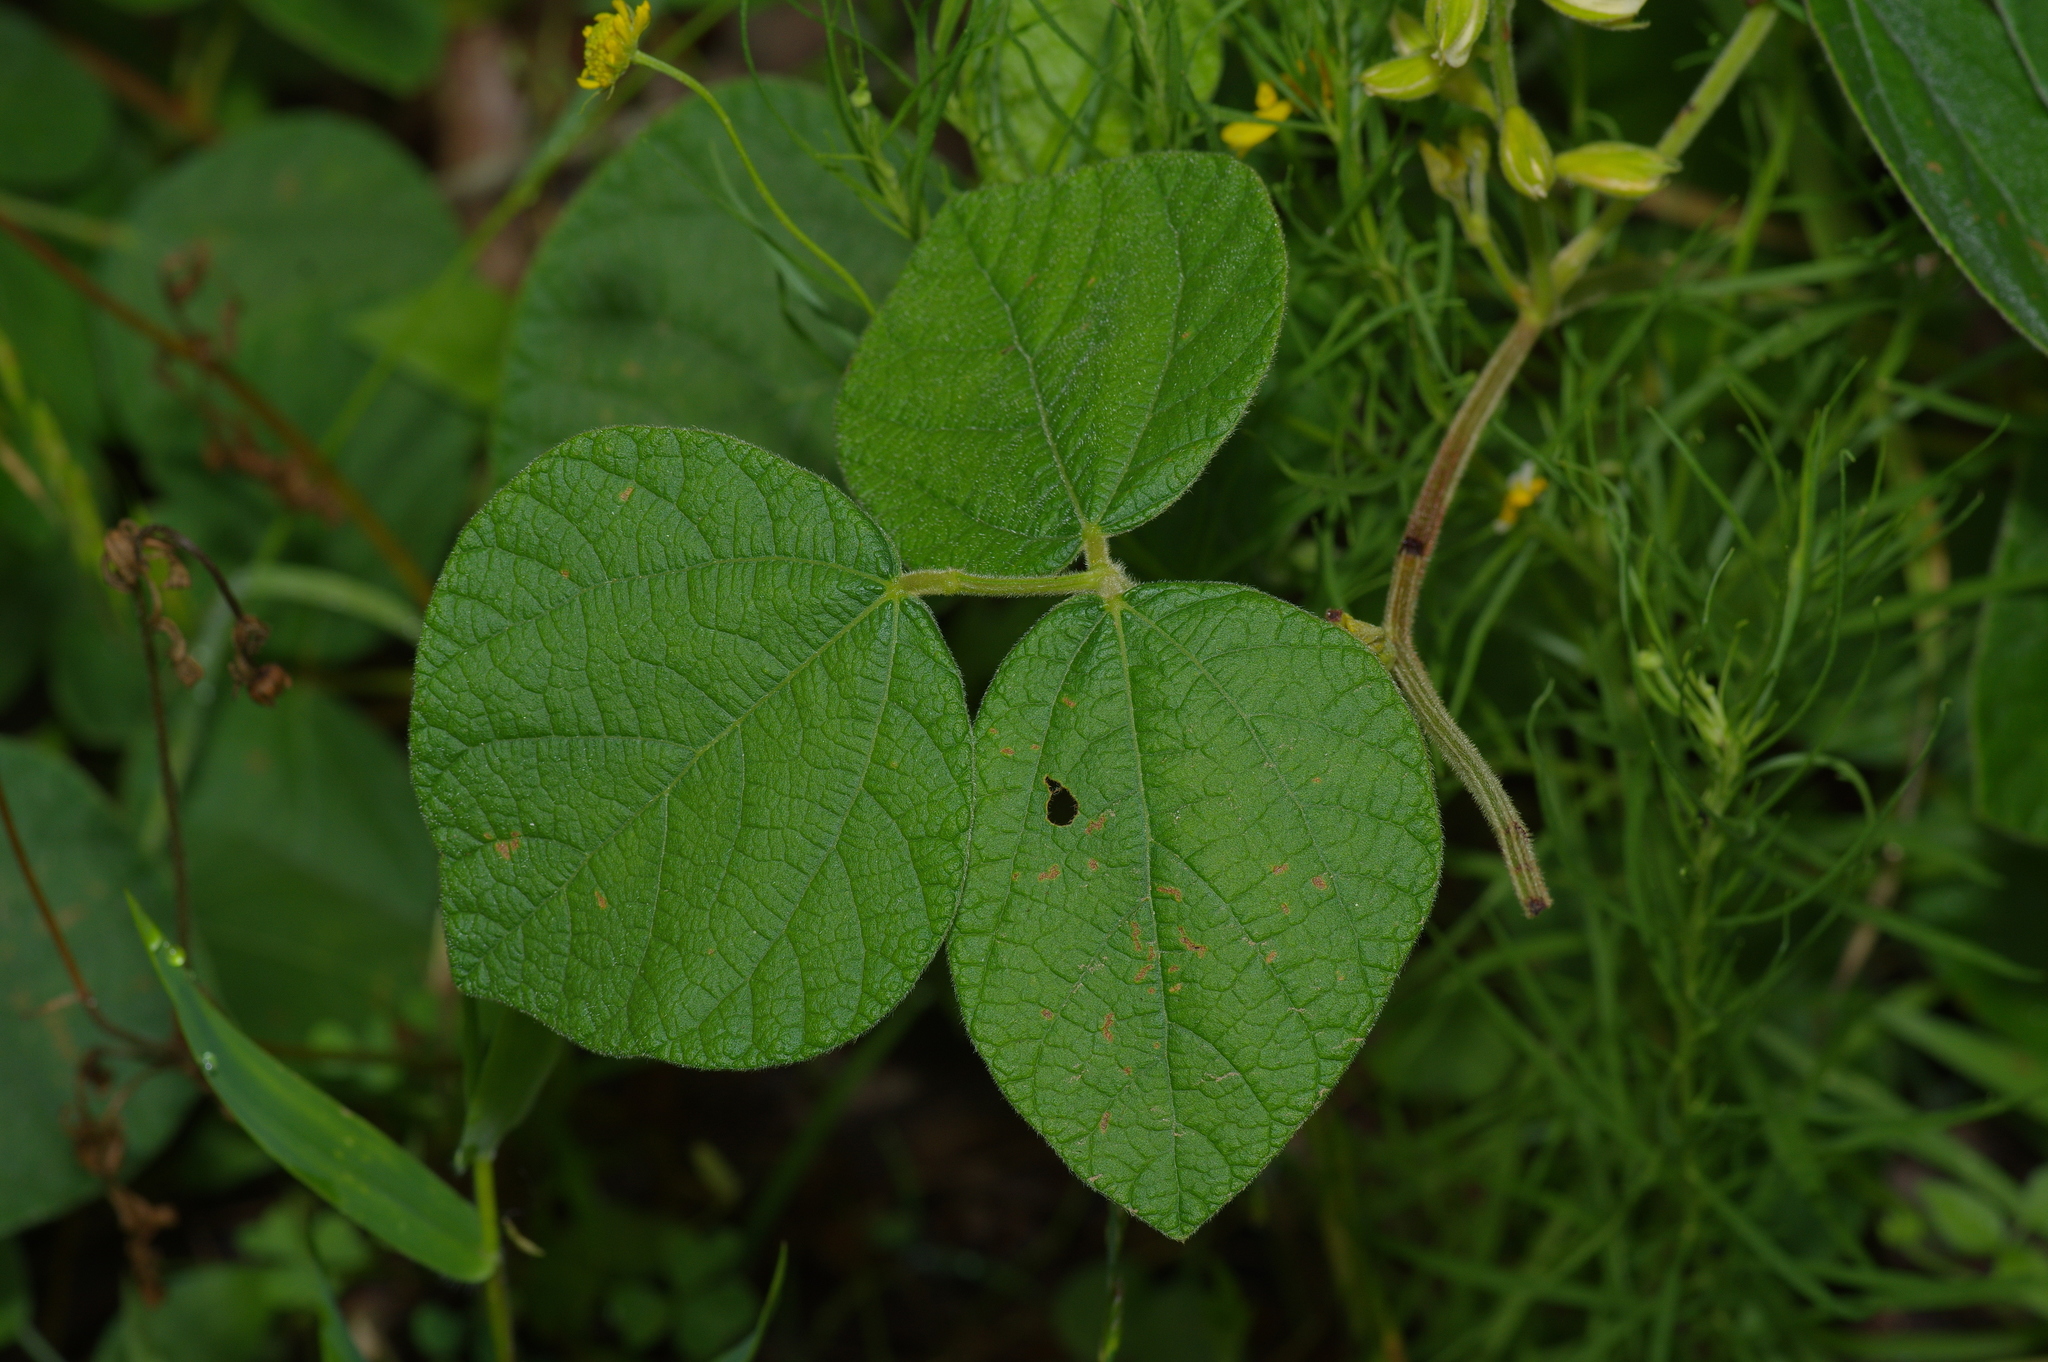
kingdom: Plantae
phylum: Tracheophyta
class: Magnoliopsida
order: Fabales
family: Fabaceae
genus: Rhynchosia
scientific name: Rhynchosia latifolia
